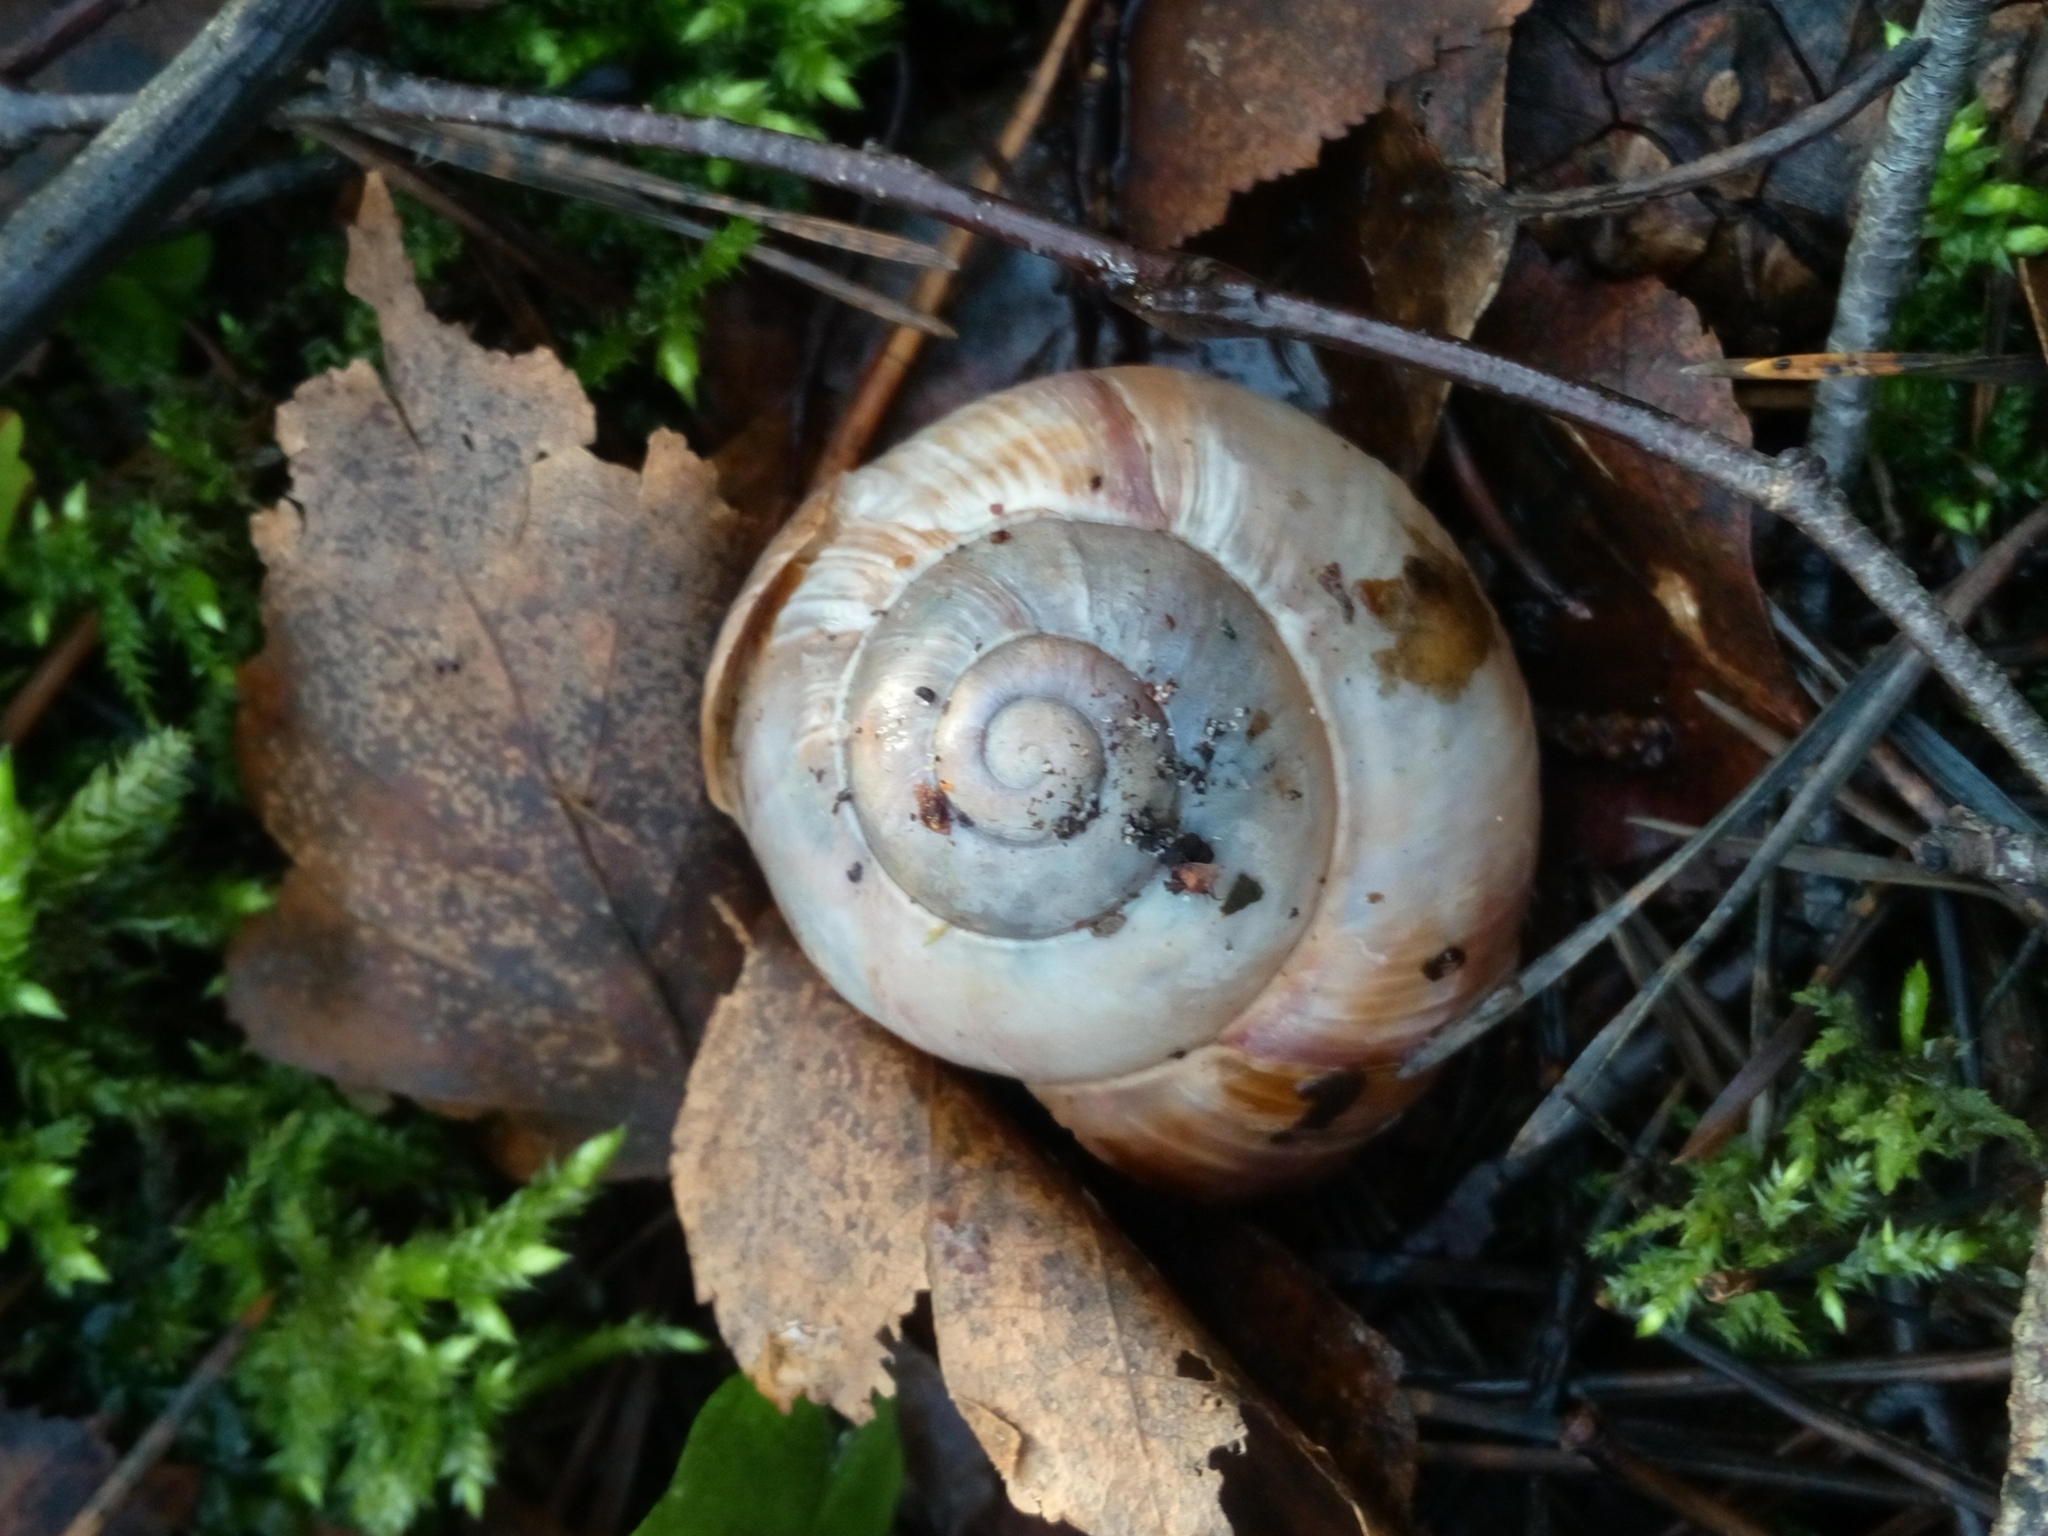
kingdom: Animalia
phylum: Mollusca
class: Gastropoda
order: Stylommatophora
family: Helicidae
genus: Helix
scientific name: Helix pomatia
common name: Roman snail
